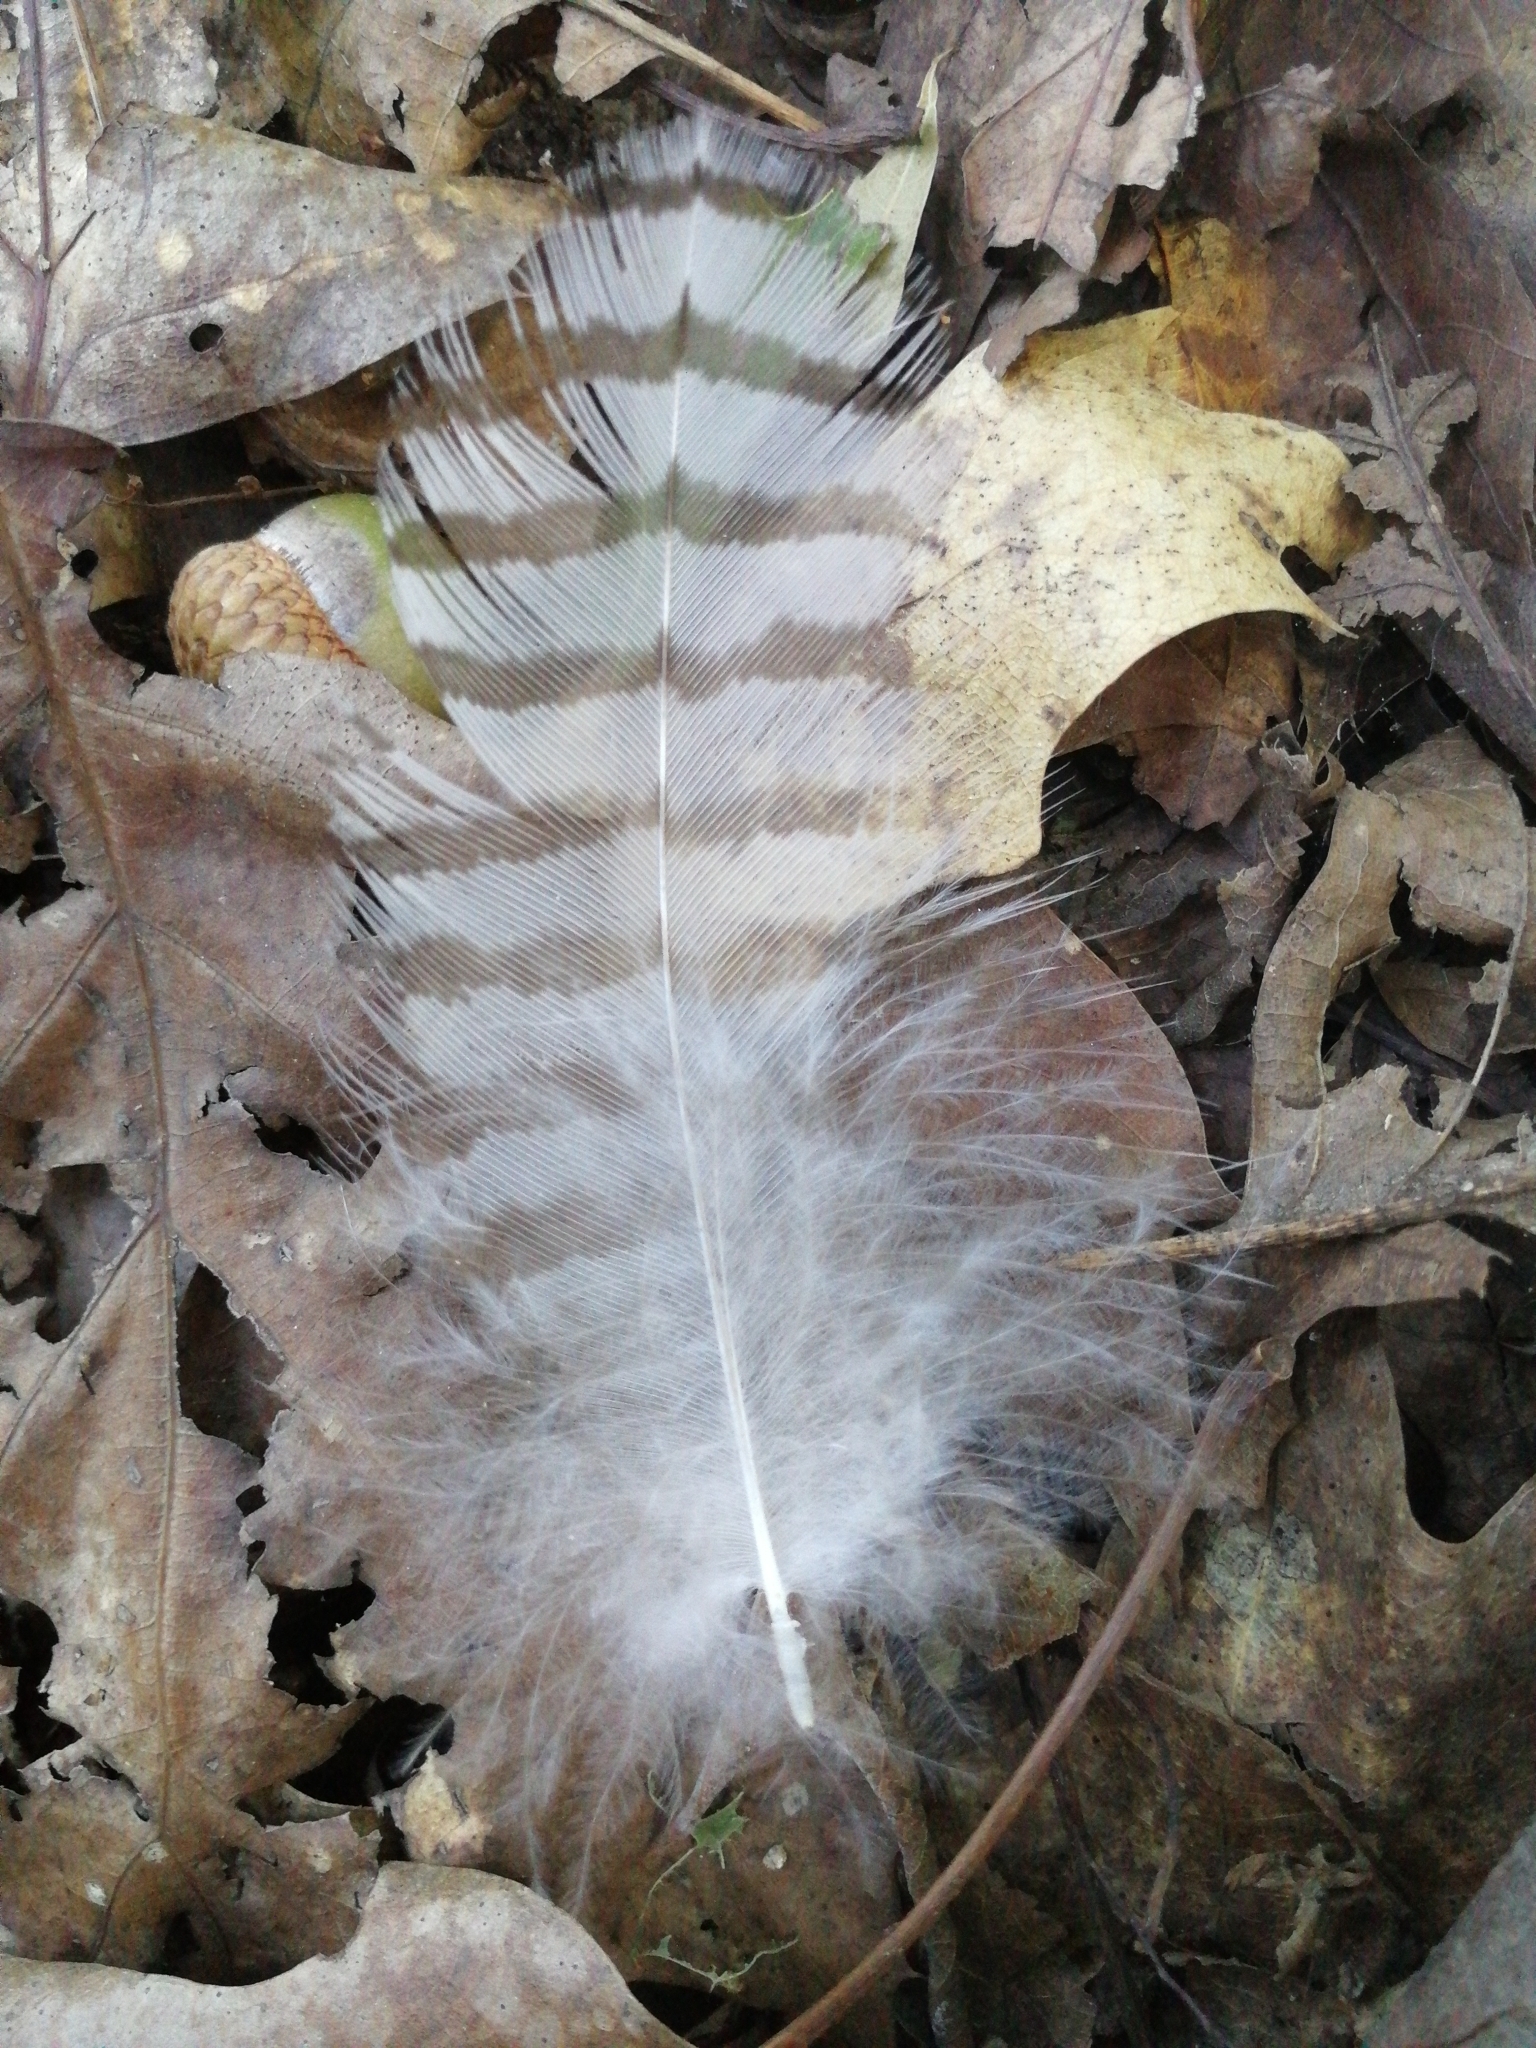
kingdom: Animalia
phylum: Chordata
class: Aves
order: Accipitriformes
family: Accipitridae
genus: Accipiter
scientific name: Accipiter gentilis
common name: Northern goshawk
